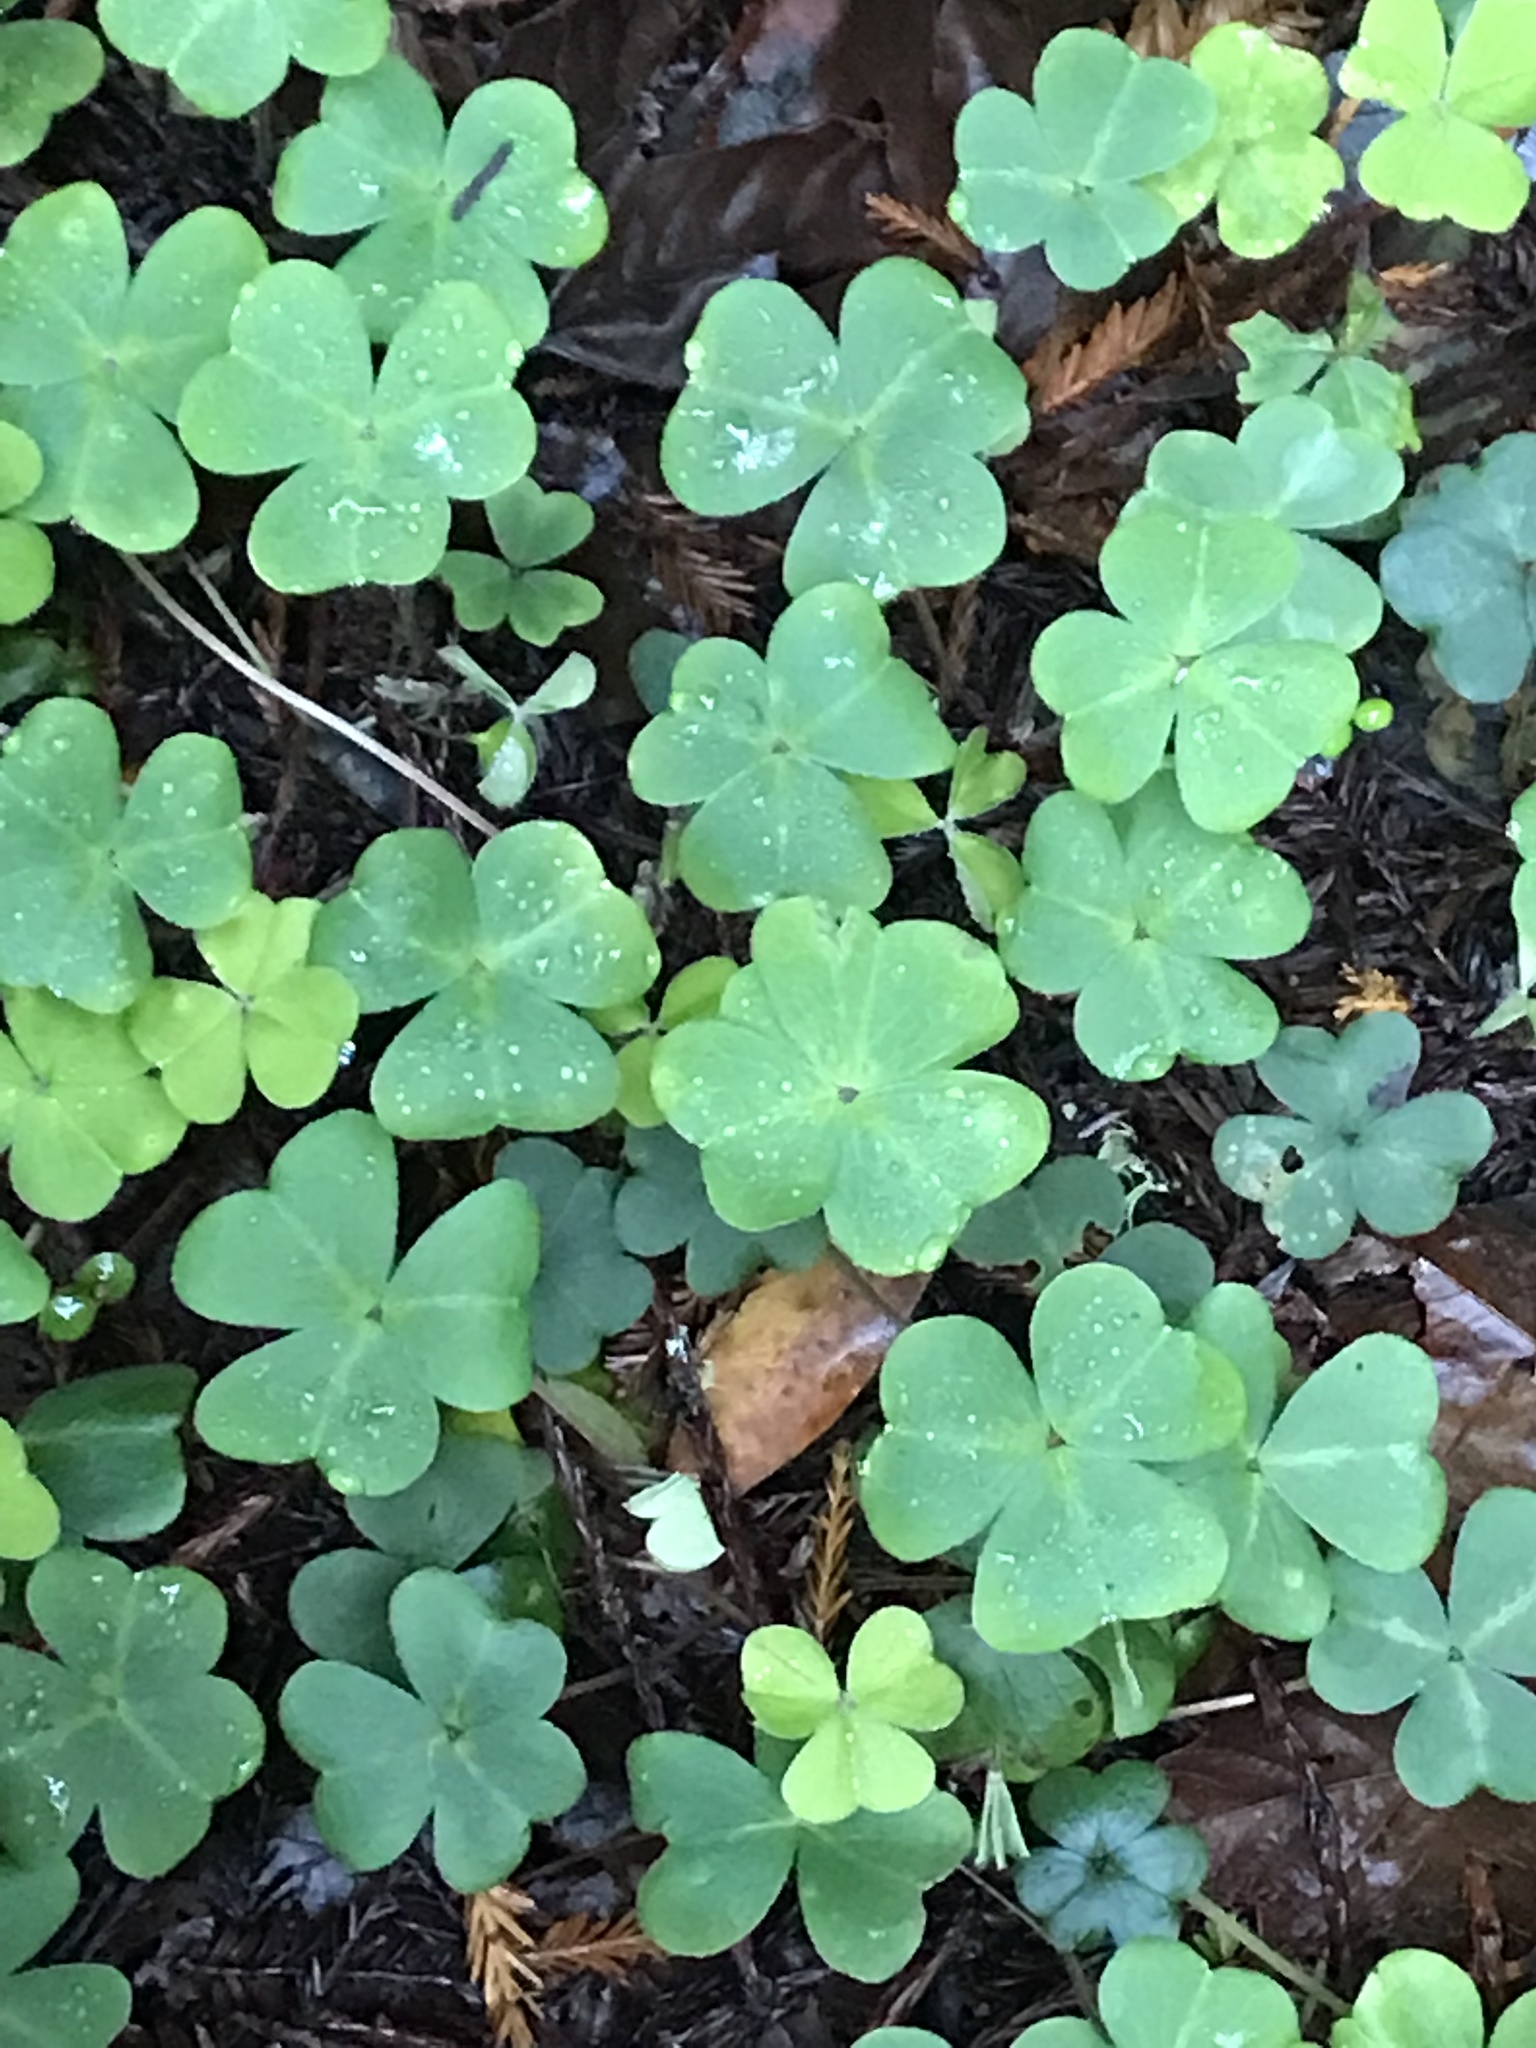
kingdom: Plantae
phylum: Tracheophyta
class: Magnoliopsida
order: Oxalidales
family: Oxalidaceae
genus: Oxalis
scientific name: Oxalis oregana
